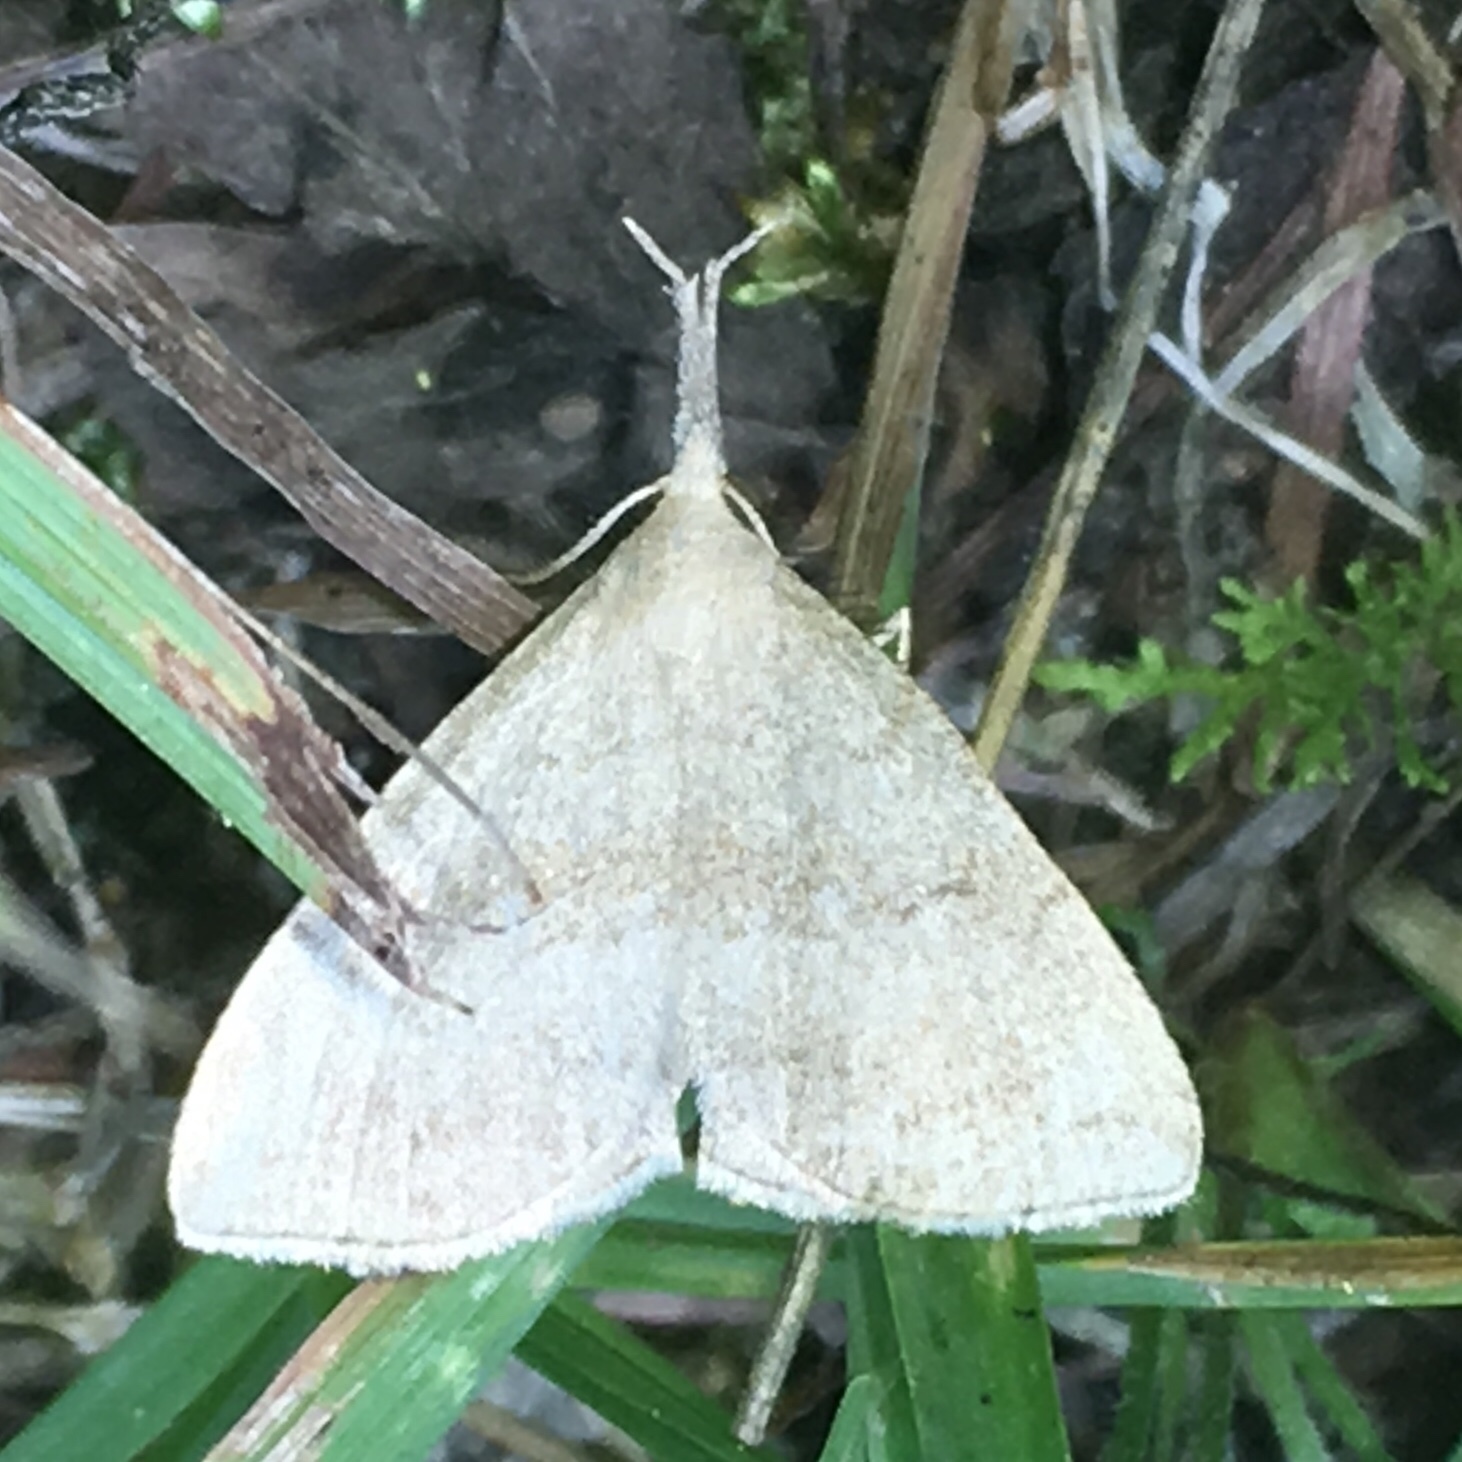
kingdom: Animalia
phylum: Arthropoda
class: Insecta
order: Lepidoptera
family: Erebidae
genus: Phalaenostola
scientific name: Phalaenostola metonalis
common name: Pale phalaenostola moth
